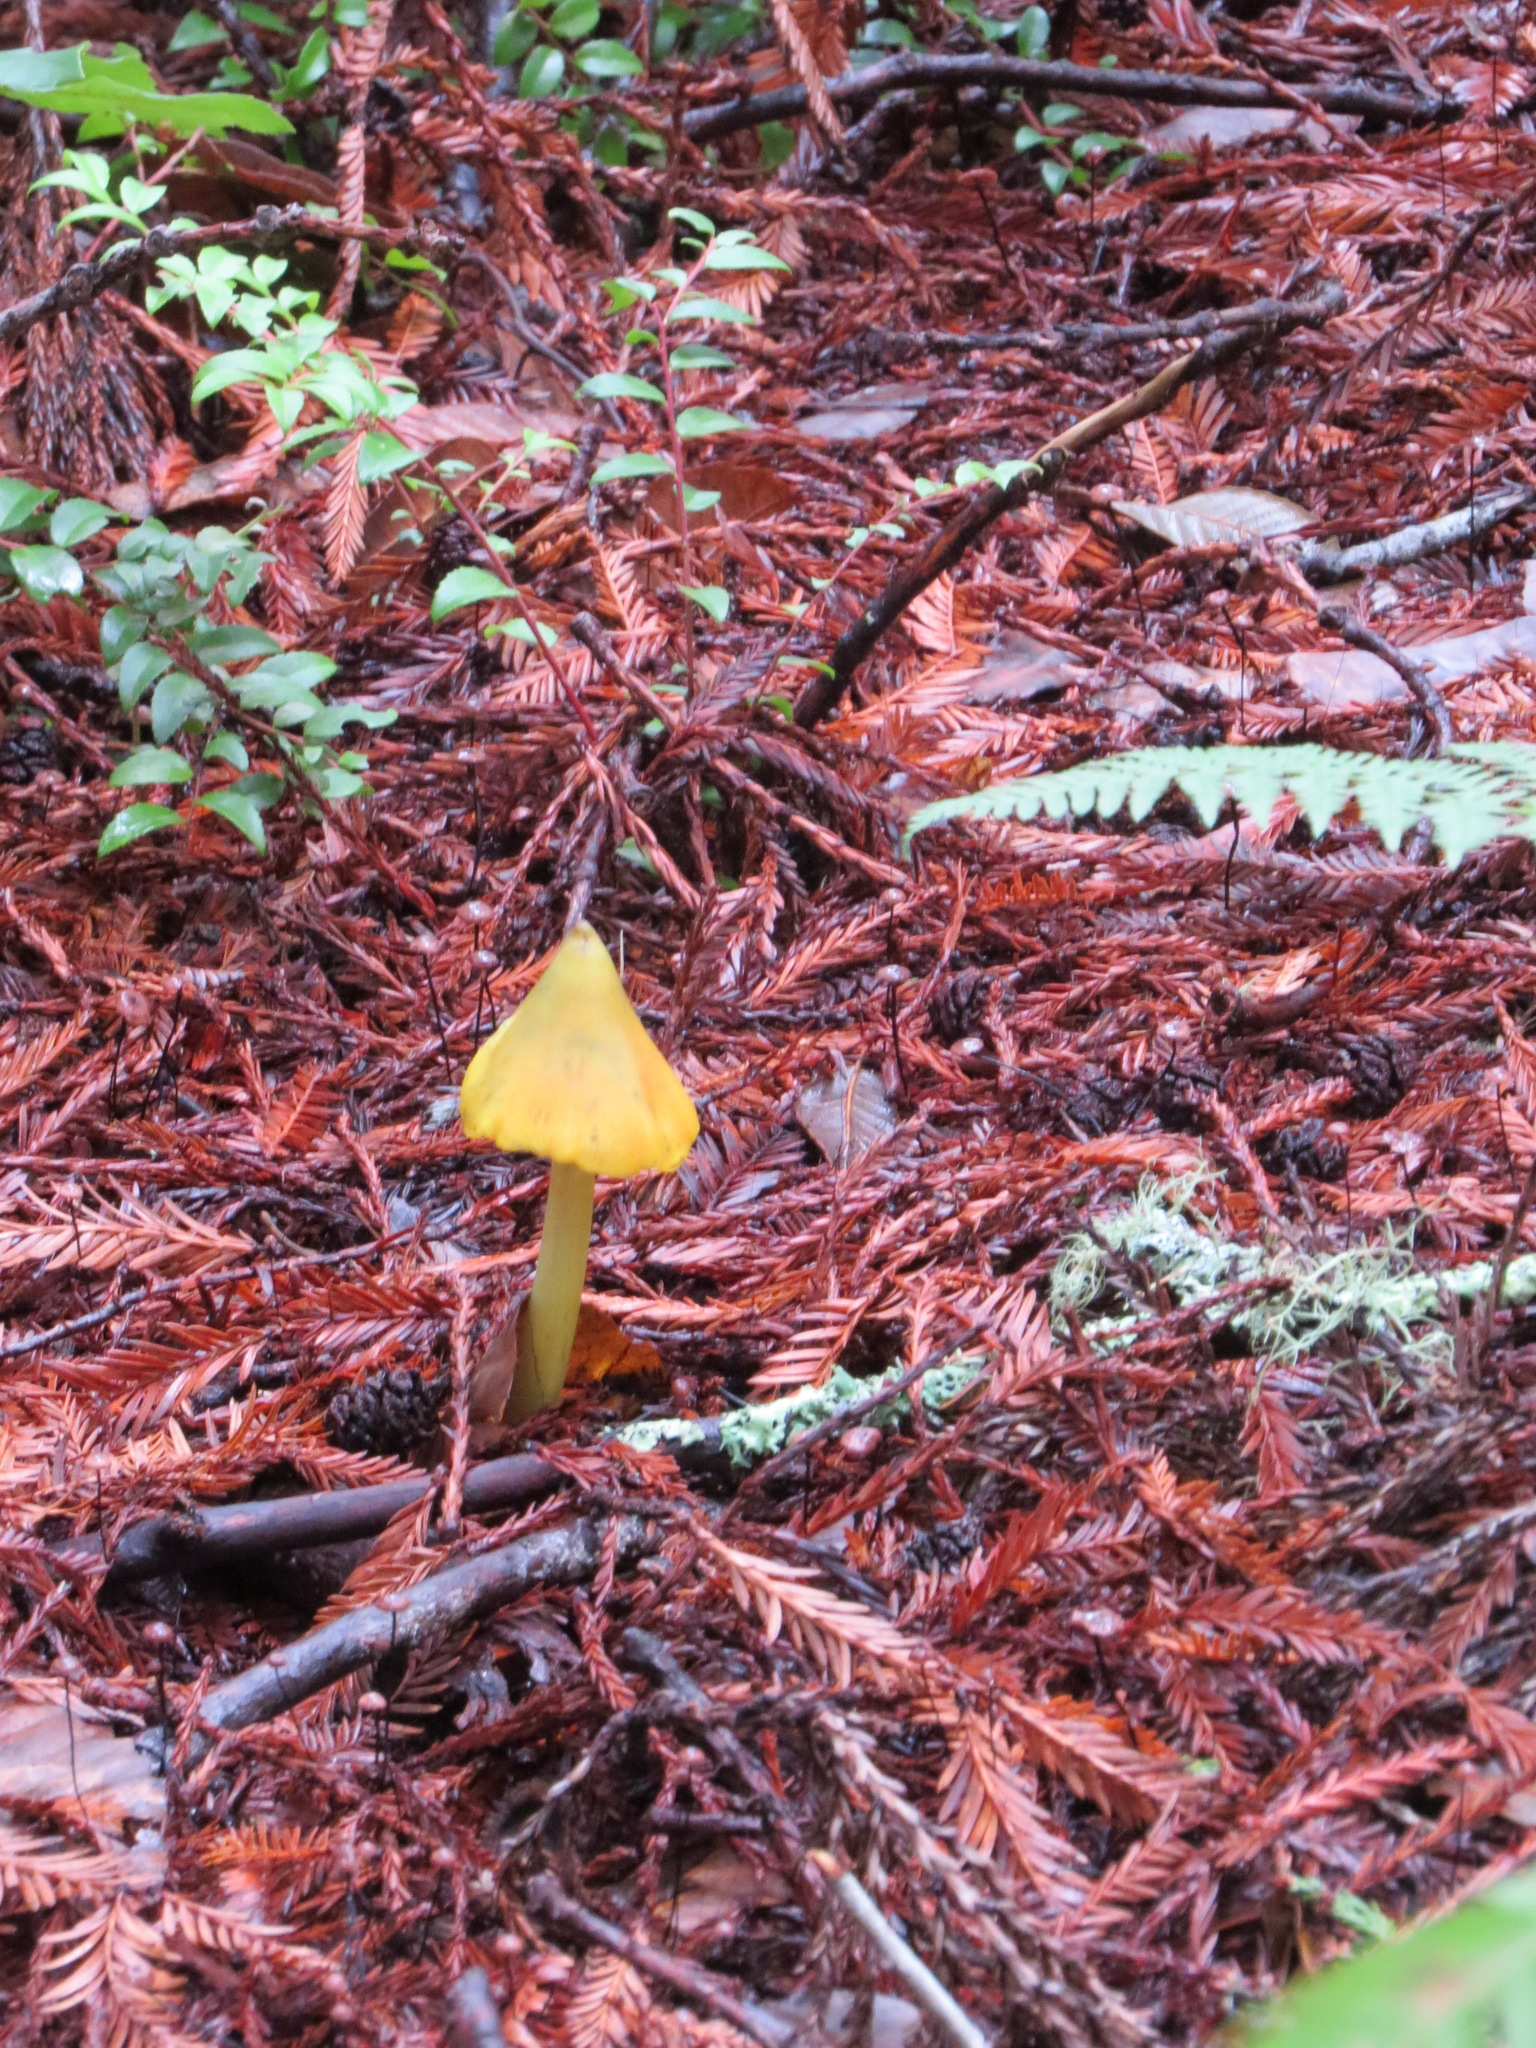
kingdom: Fungi
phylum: Basidiomycota
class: Agaricomycetes
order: Agaricales
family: Hygrophoraceae
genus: Hygrocybe
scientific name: Hygrocybe singeri
